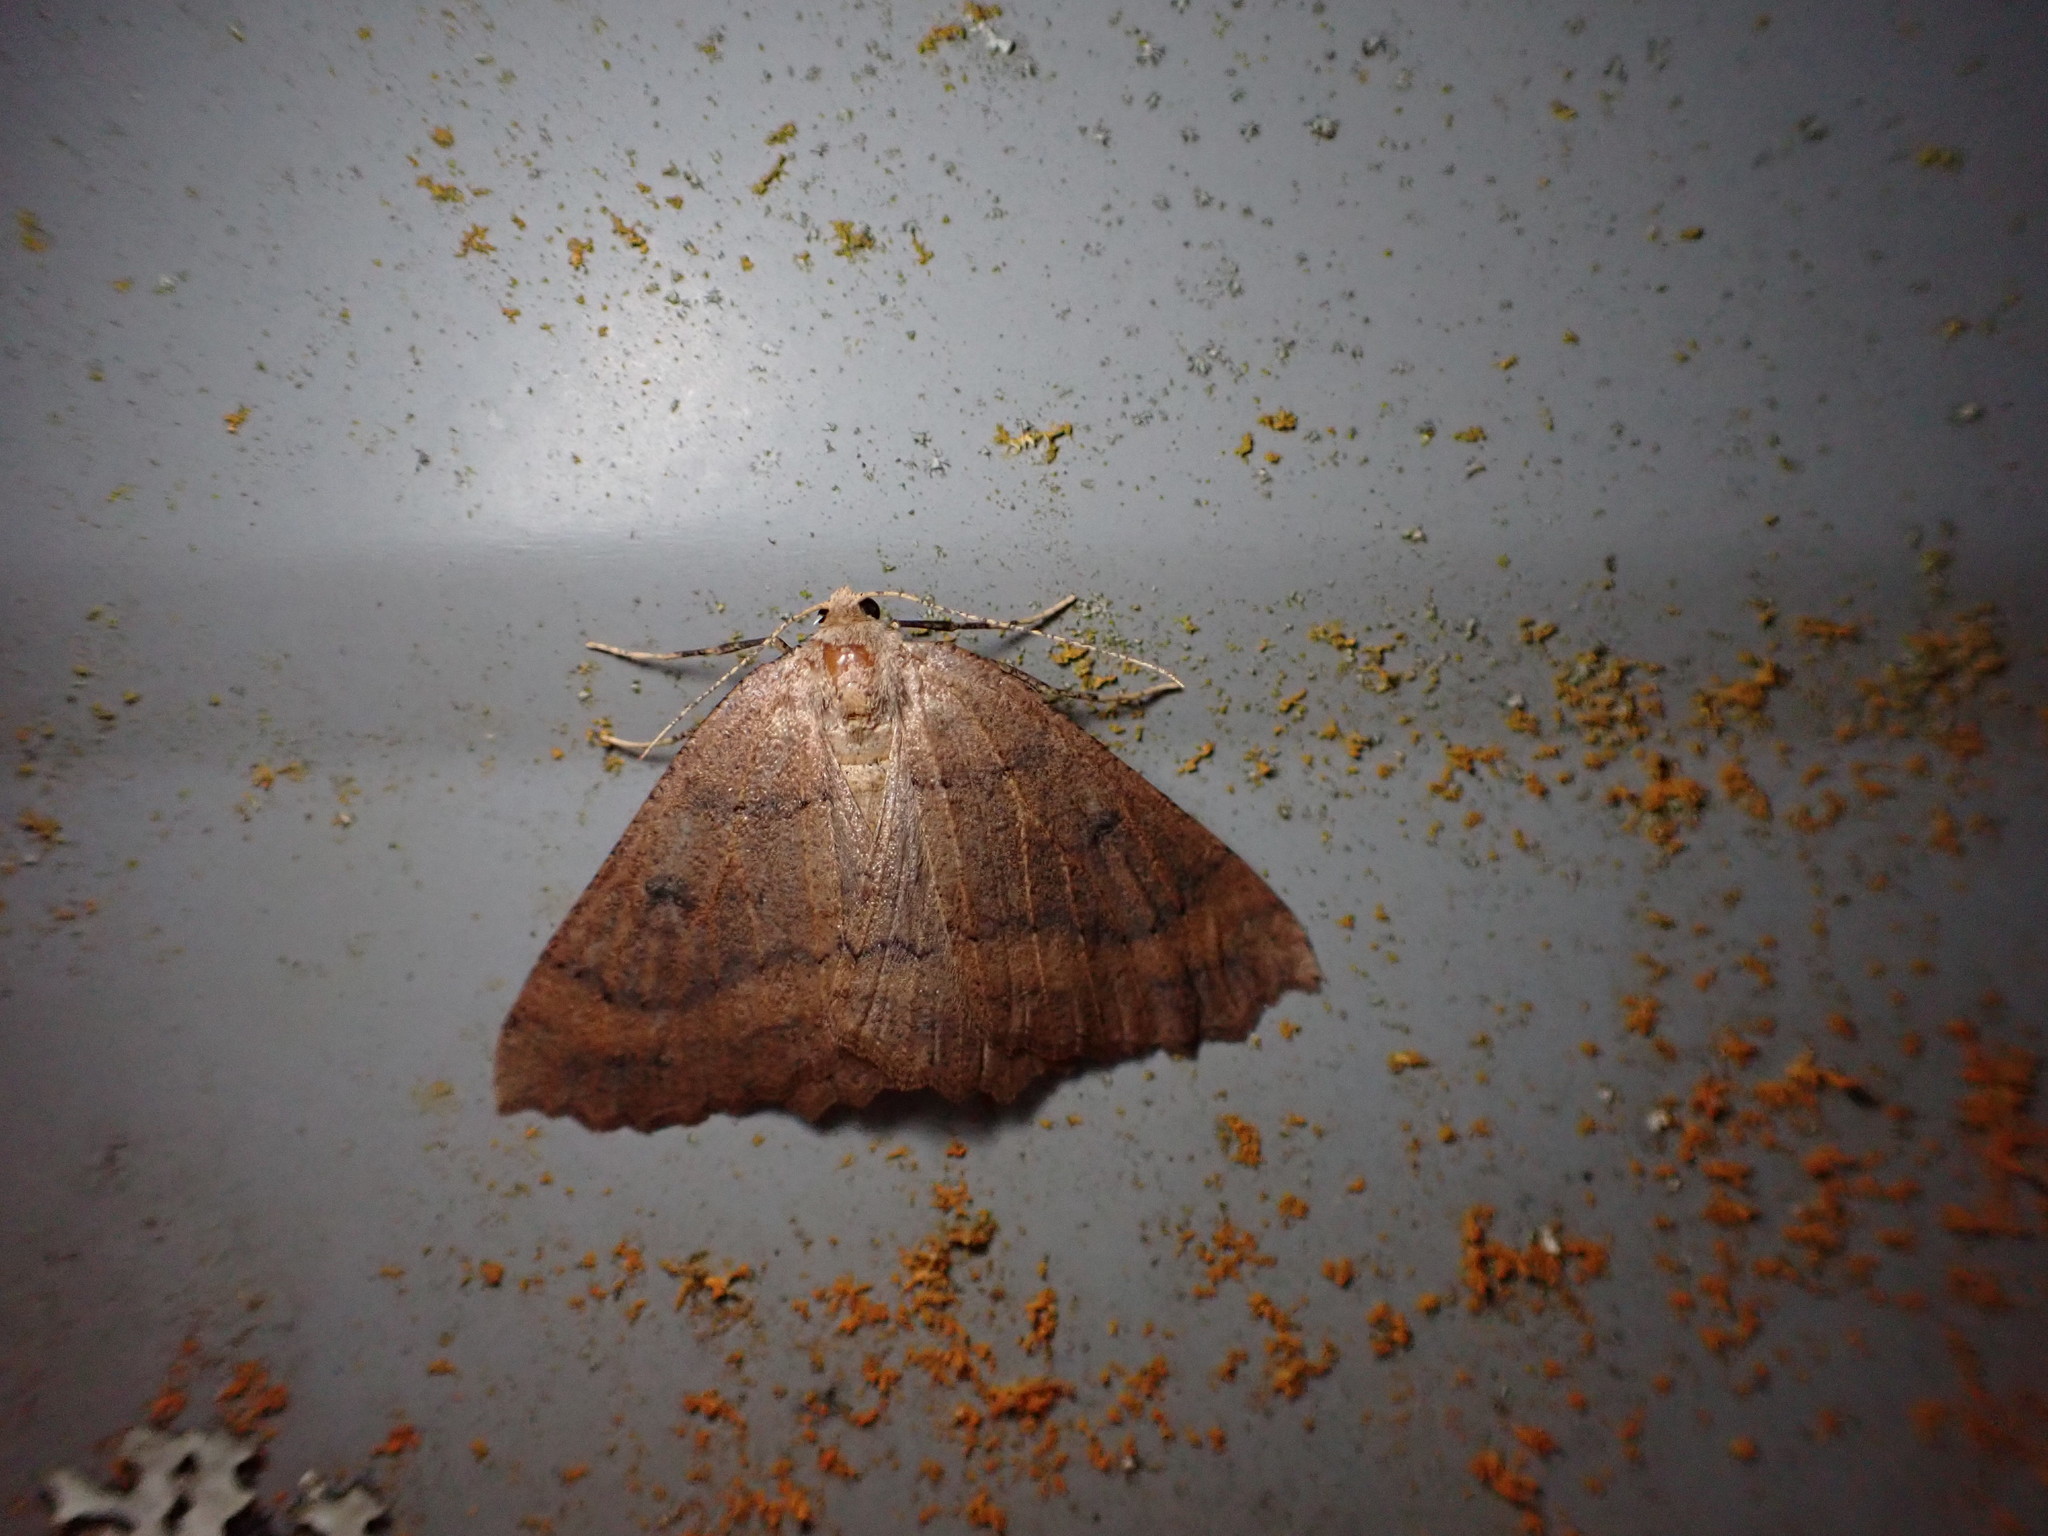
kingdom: Animalia
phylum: Arthropoda
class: Insecta
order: Lepidoptera
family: Geometridae
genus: Cleora
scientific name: Cleora scriptaria
